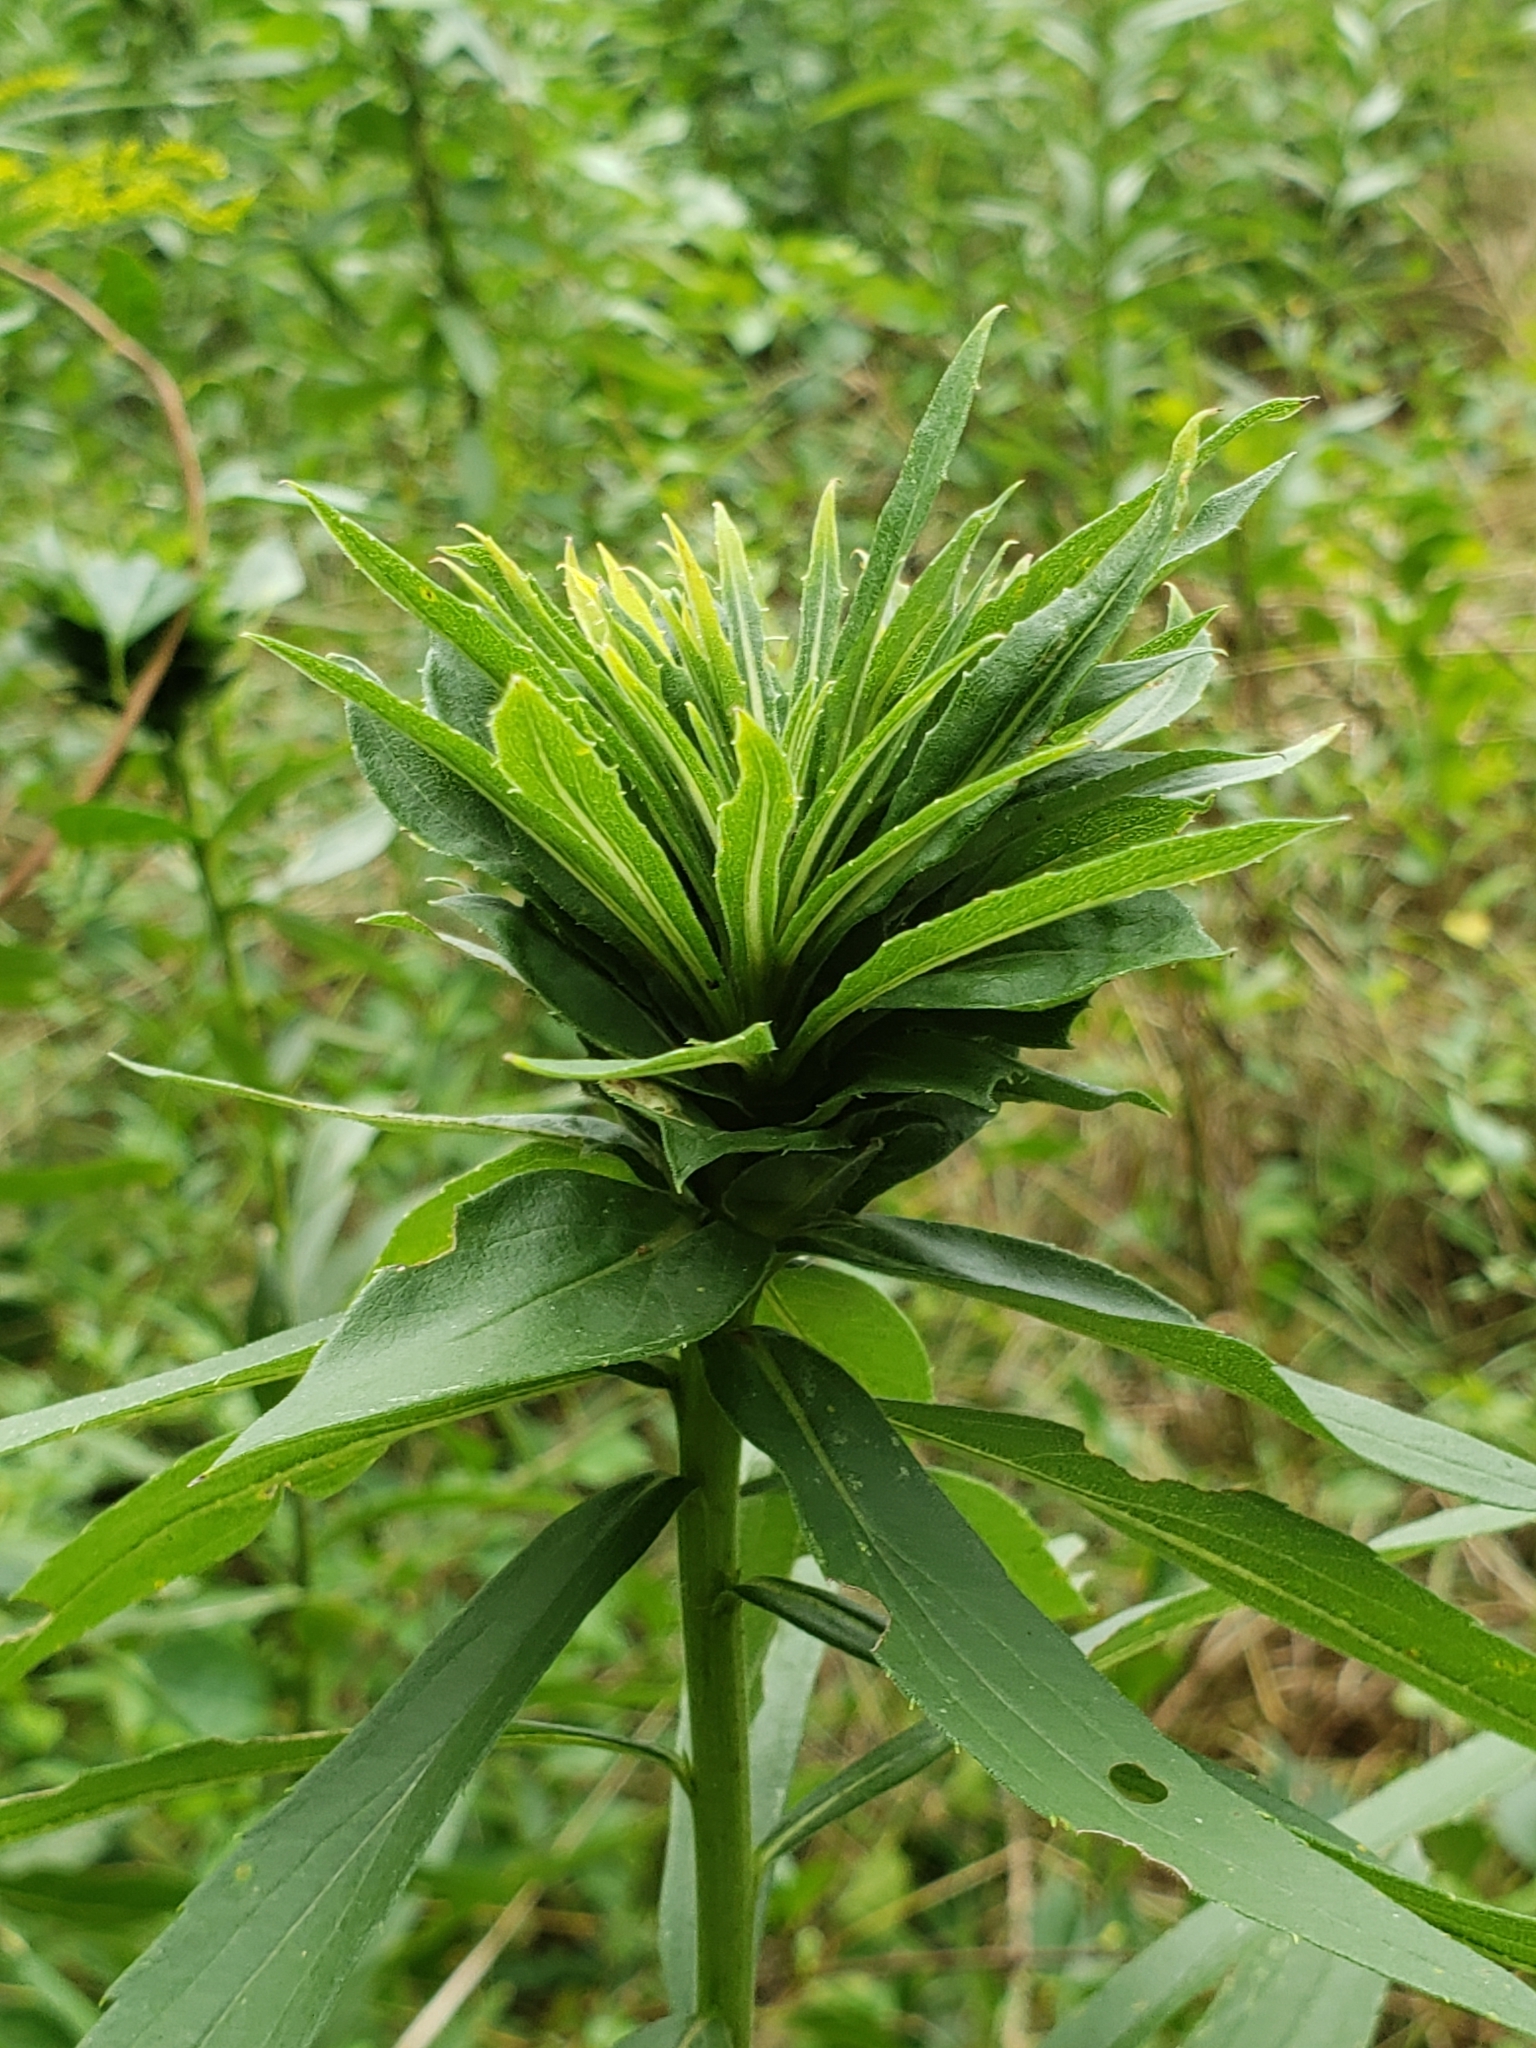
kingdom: Animalia
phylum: Arthropoda
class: Insecta
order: Diptera
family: Cecidomyiidae
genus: Rhopalomyia
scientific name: Rhopalomyia solidaginis
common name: Goldenrod bunch gall midge
